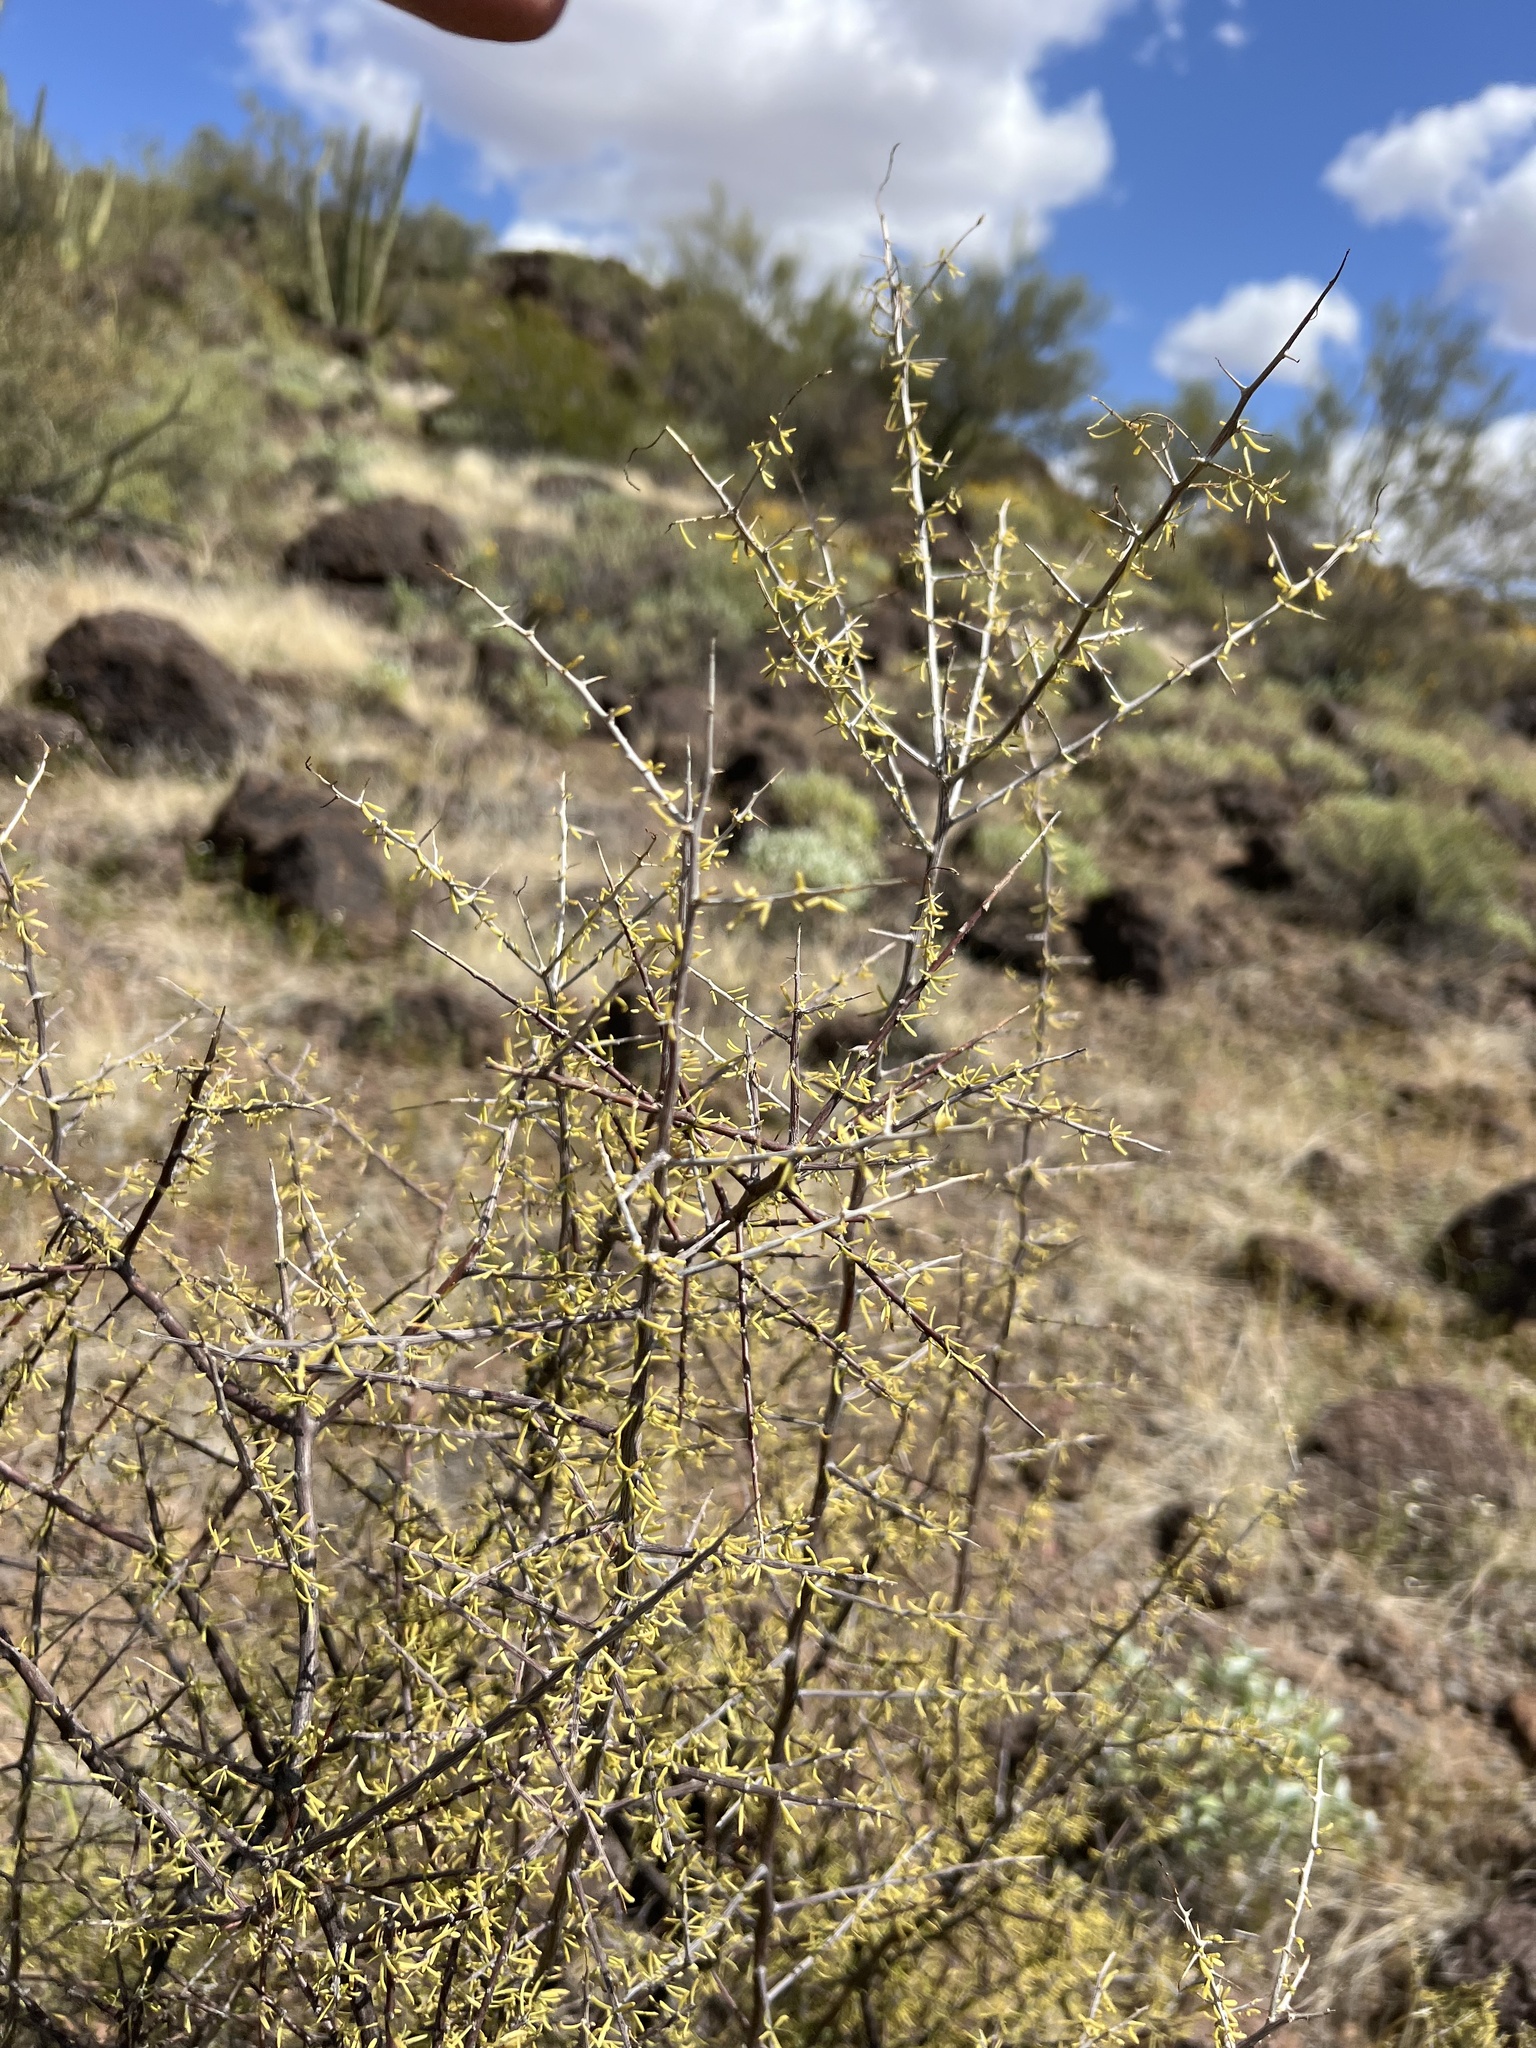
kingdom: Plantae
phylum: Tracheophyta
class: Magnoliopsida
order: Solanales
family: Solanaceae
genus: Lycium
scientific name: Lycium andersonii
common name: Water-jacket
